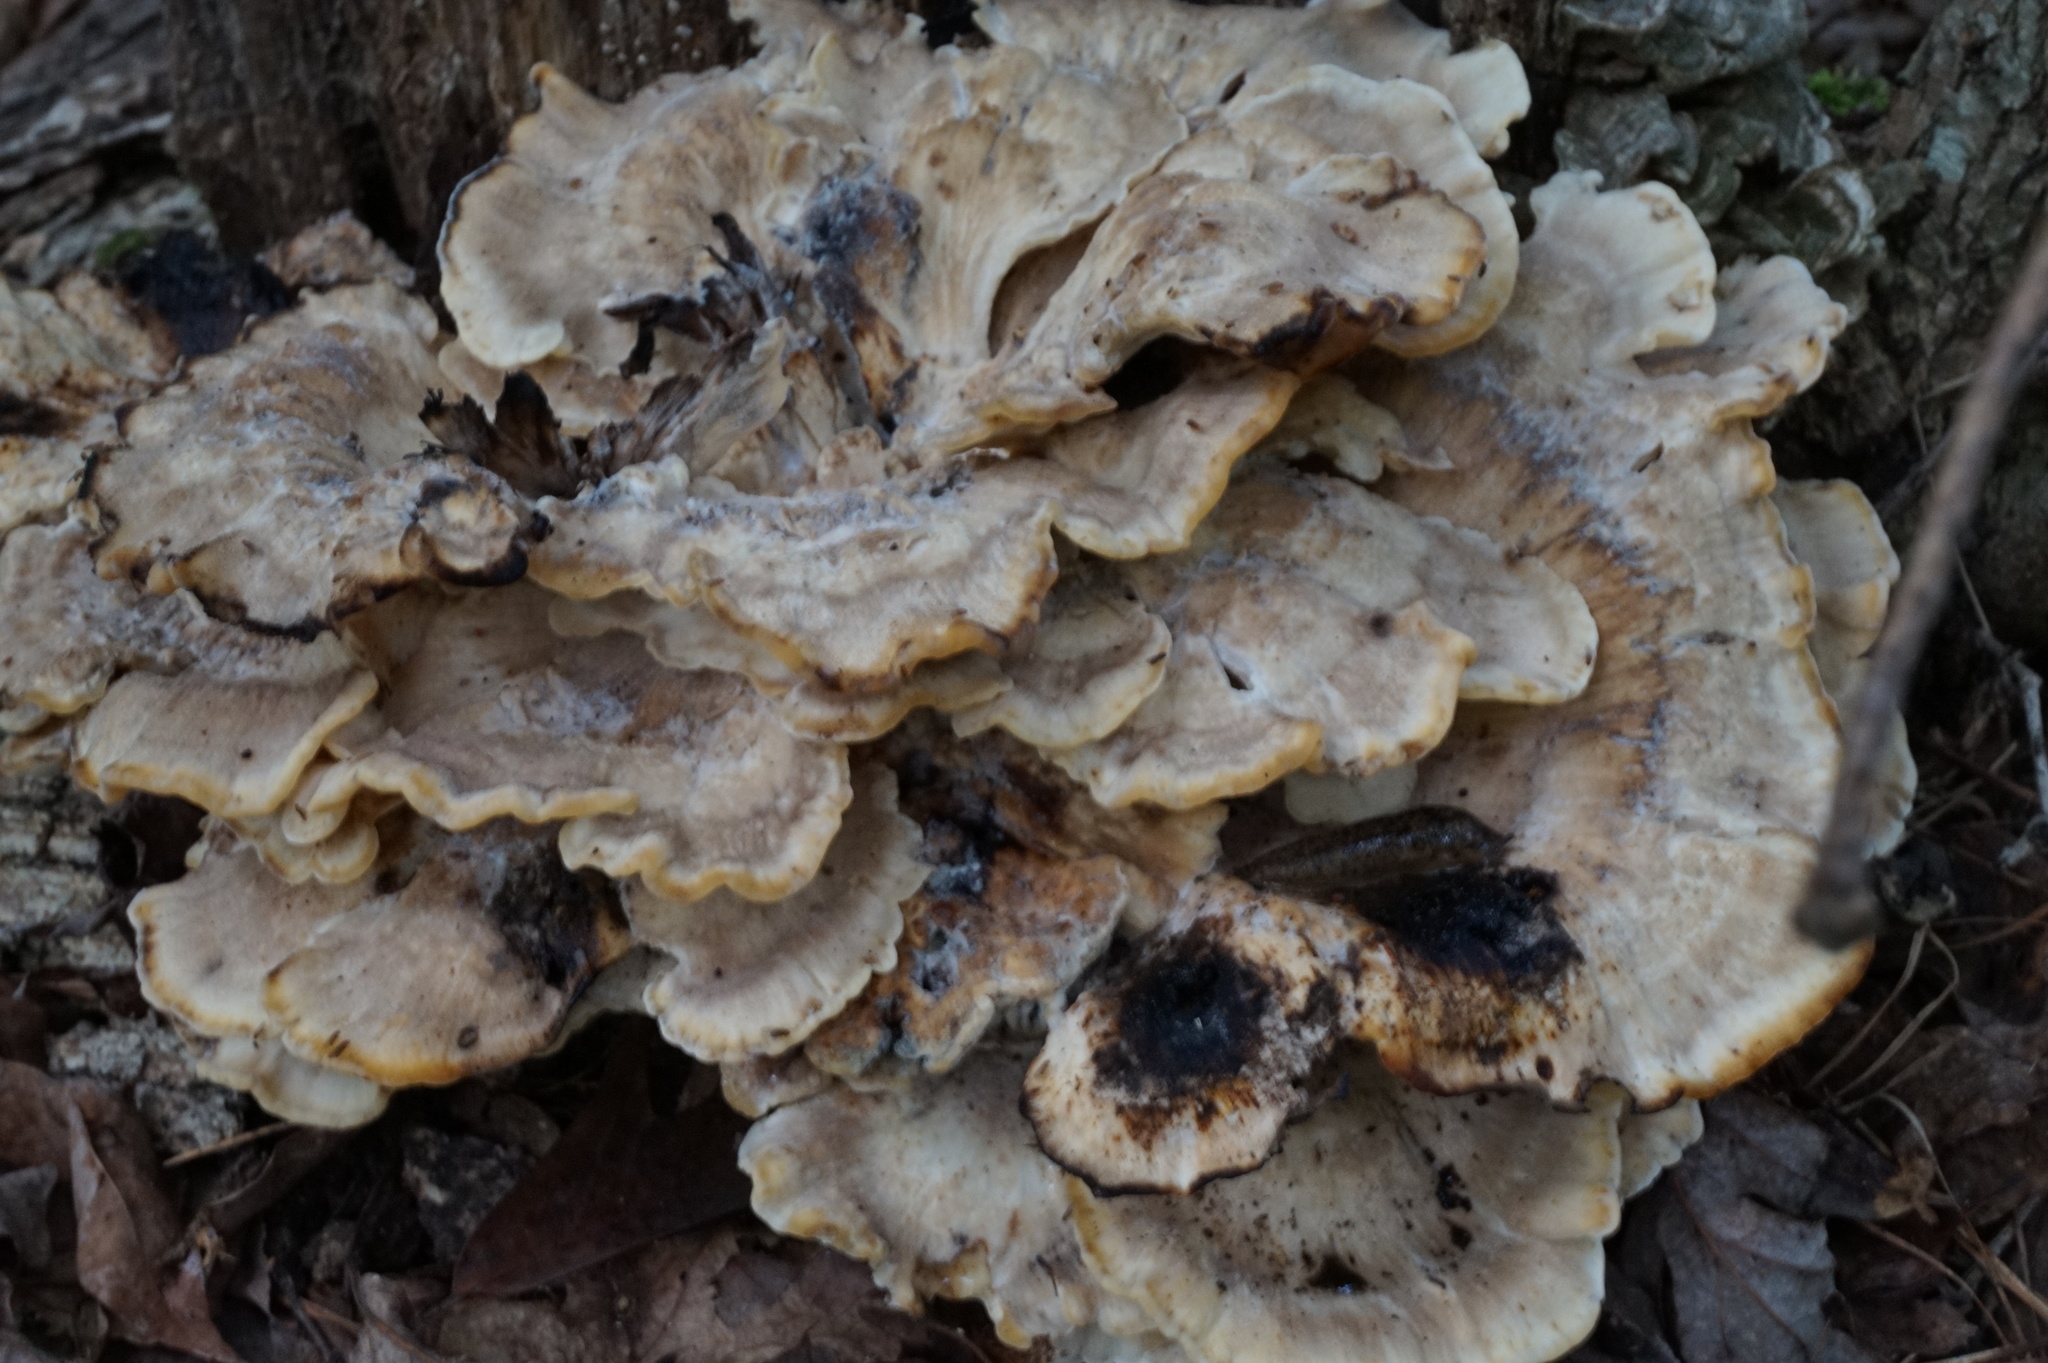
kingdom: Fungi
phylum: Basidiomycota
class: Agaricomycetes
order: Polyporales
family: Meripilaceae
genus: Meripilus
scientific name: Meripilus sumstinei
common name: Black-staining polypore
